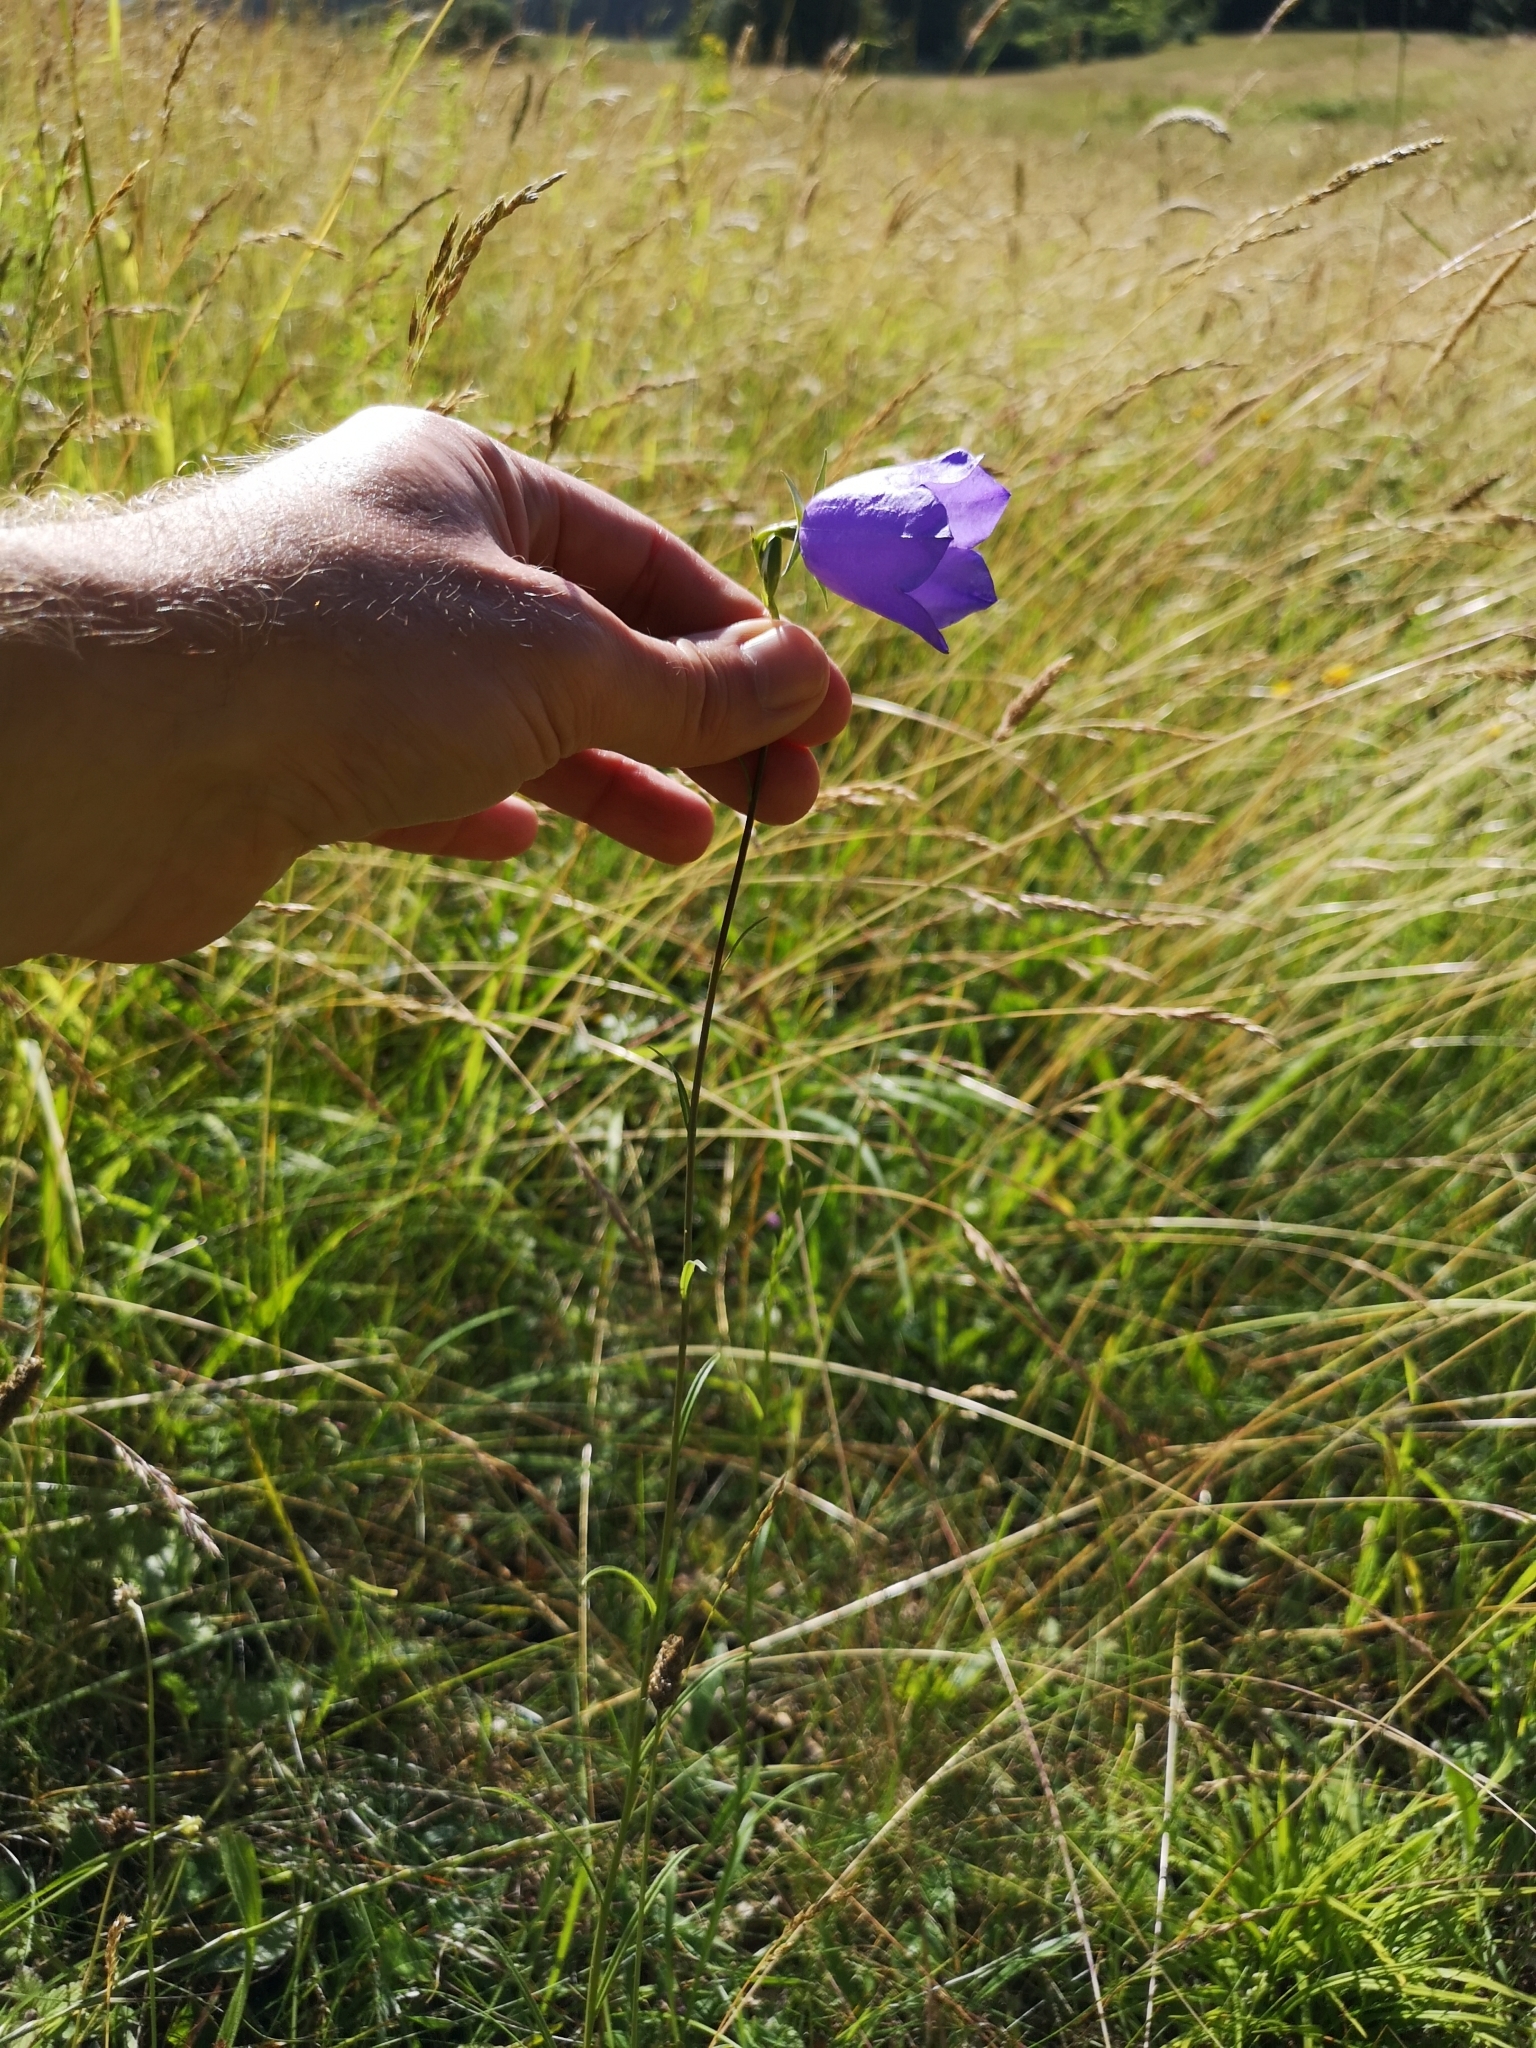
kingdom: Plantae
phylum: Tracheophyta
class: Magnoliopsida
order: Asterales
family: Campanulaceae
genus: Campanula
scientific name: Campanula persicifolia
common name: Peach-leaved bellflower
